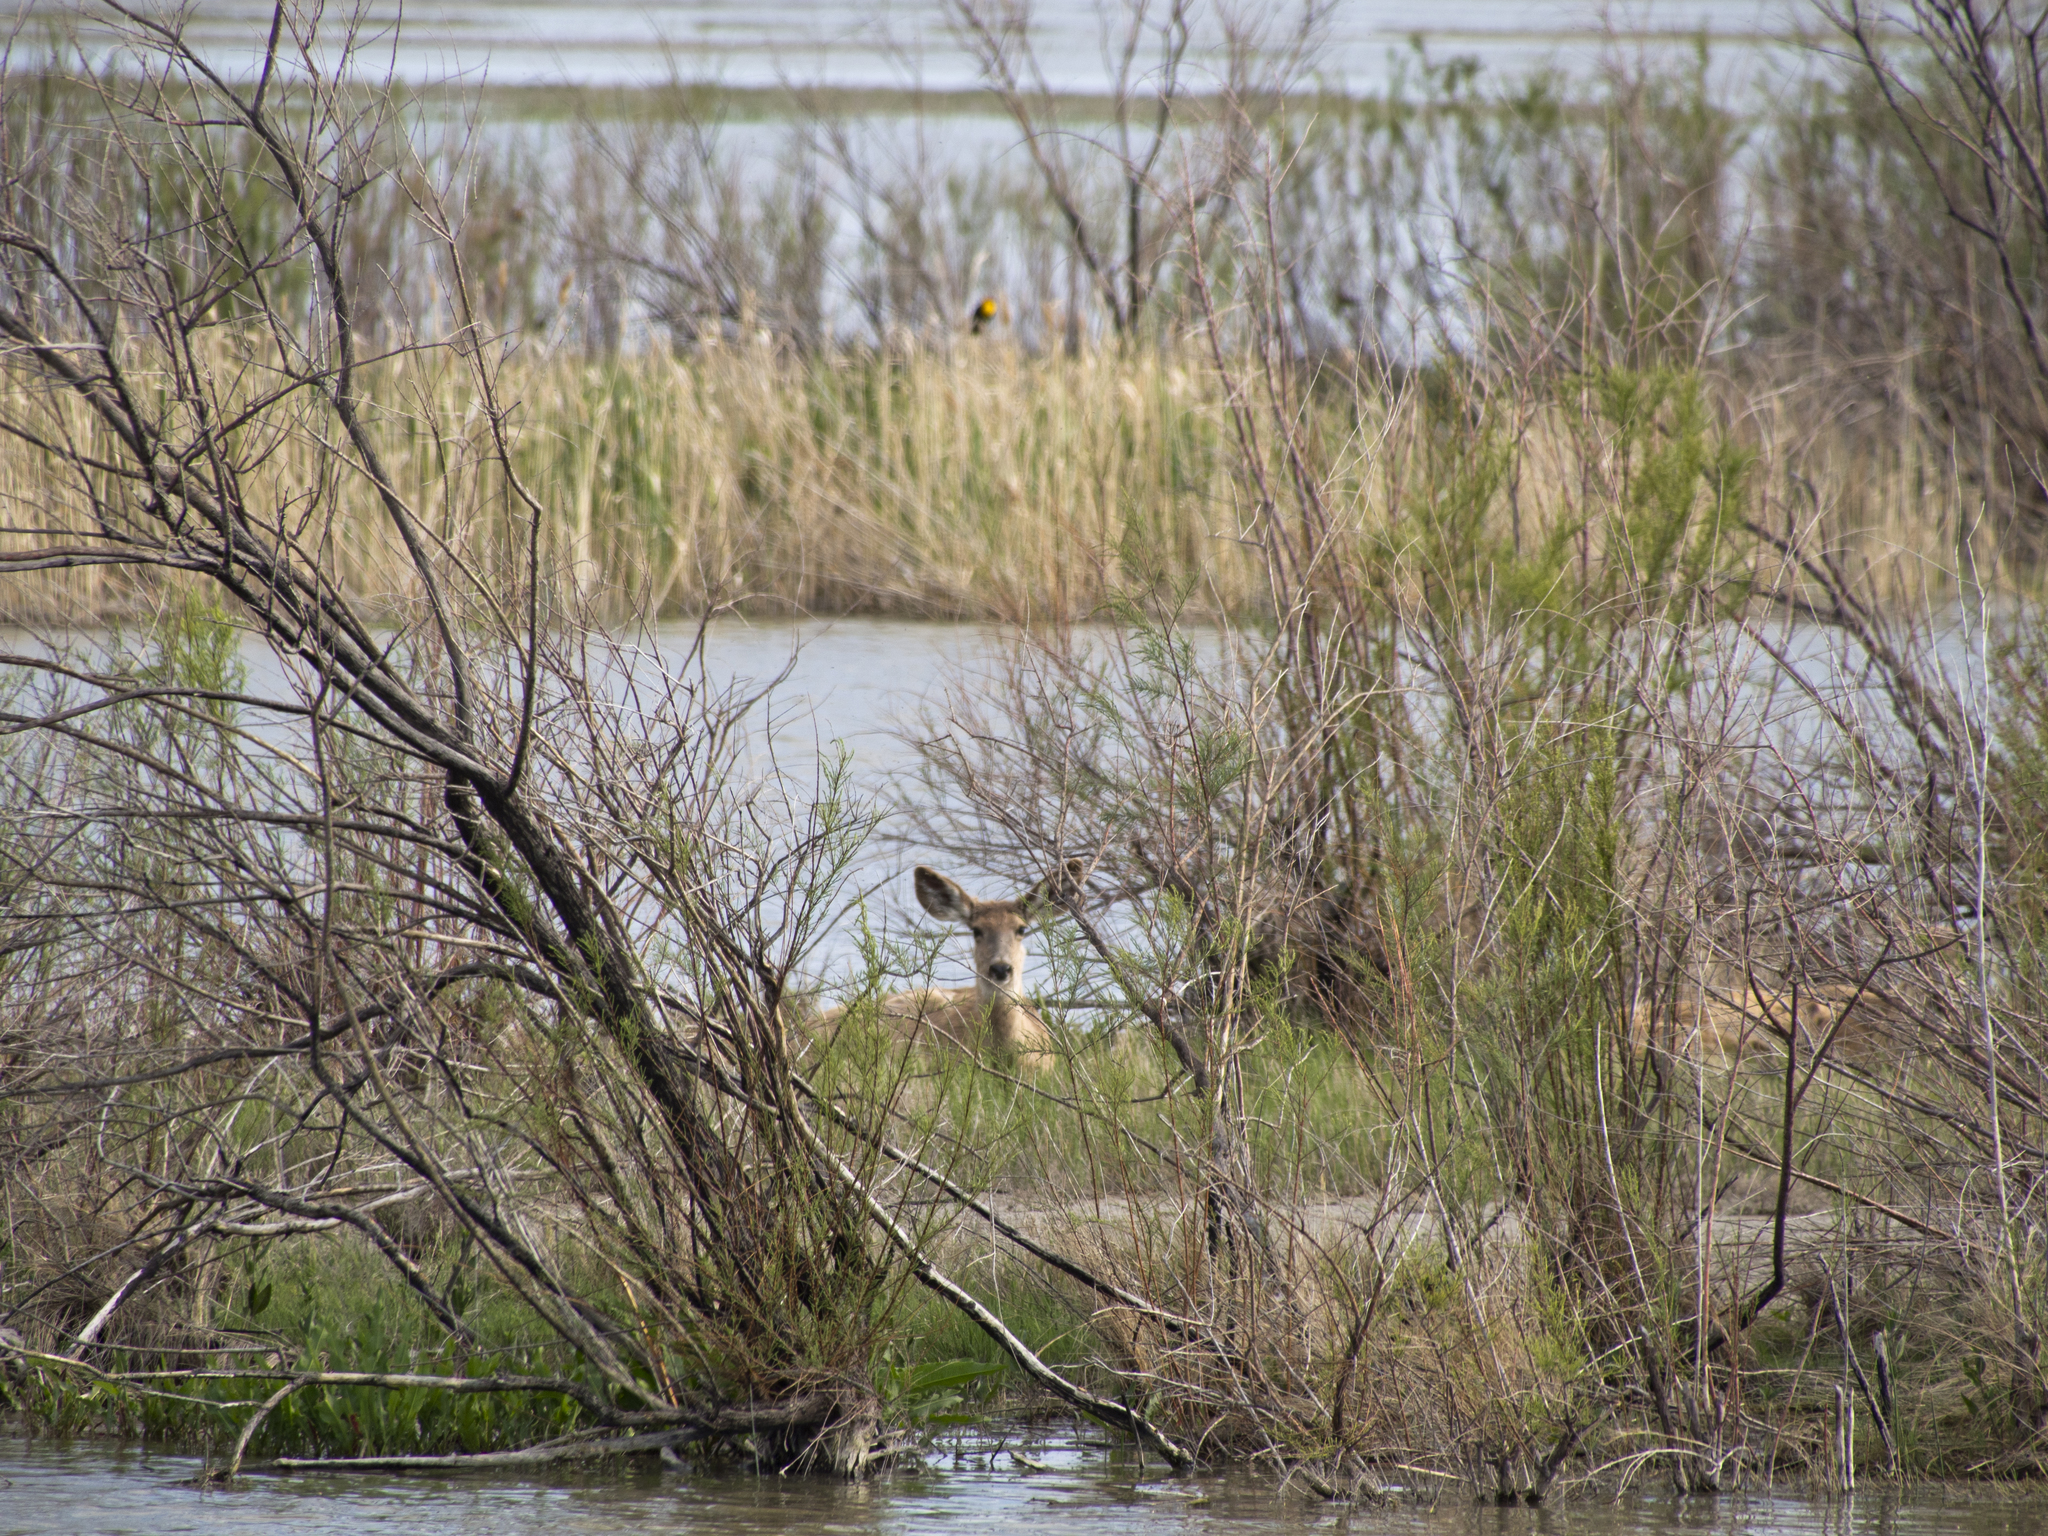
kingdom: Animalia
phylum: Chordata
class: Mammalia
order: Artiodactyla
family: Cervidae
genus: Odocoileus
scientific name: Odocoileus hemionus
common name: Mule deer
